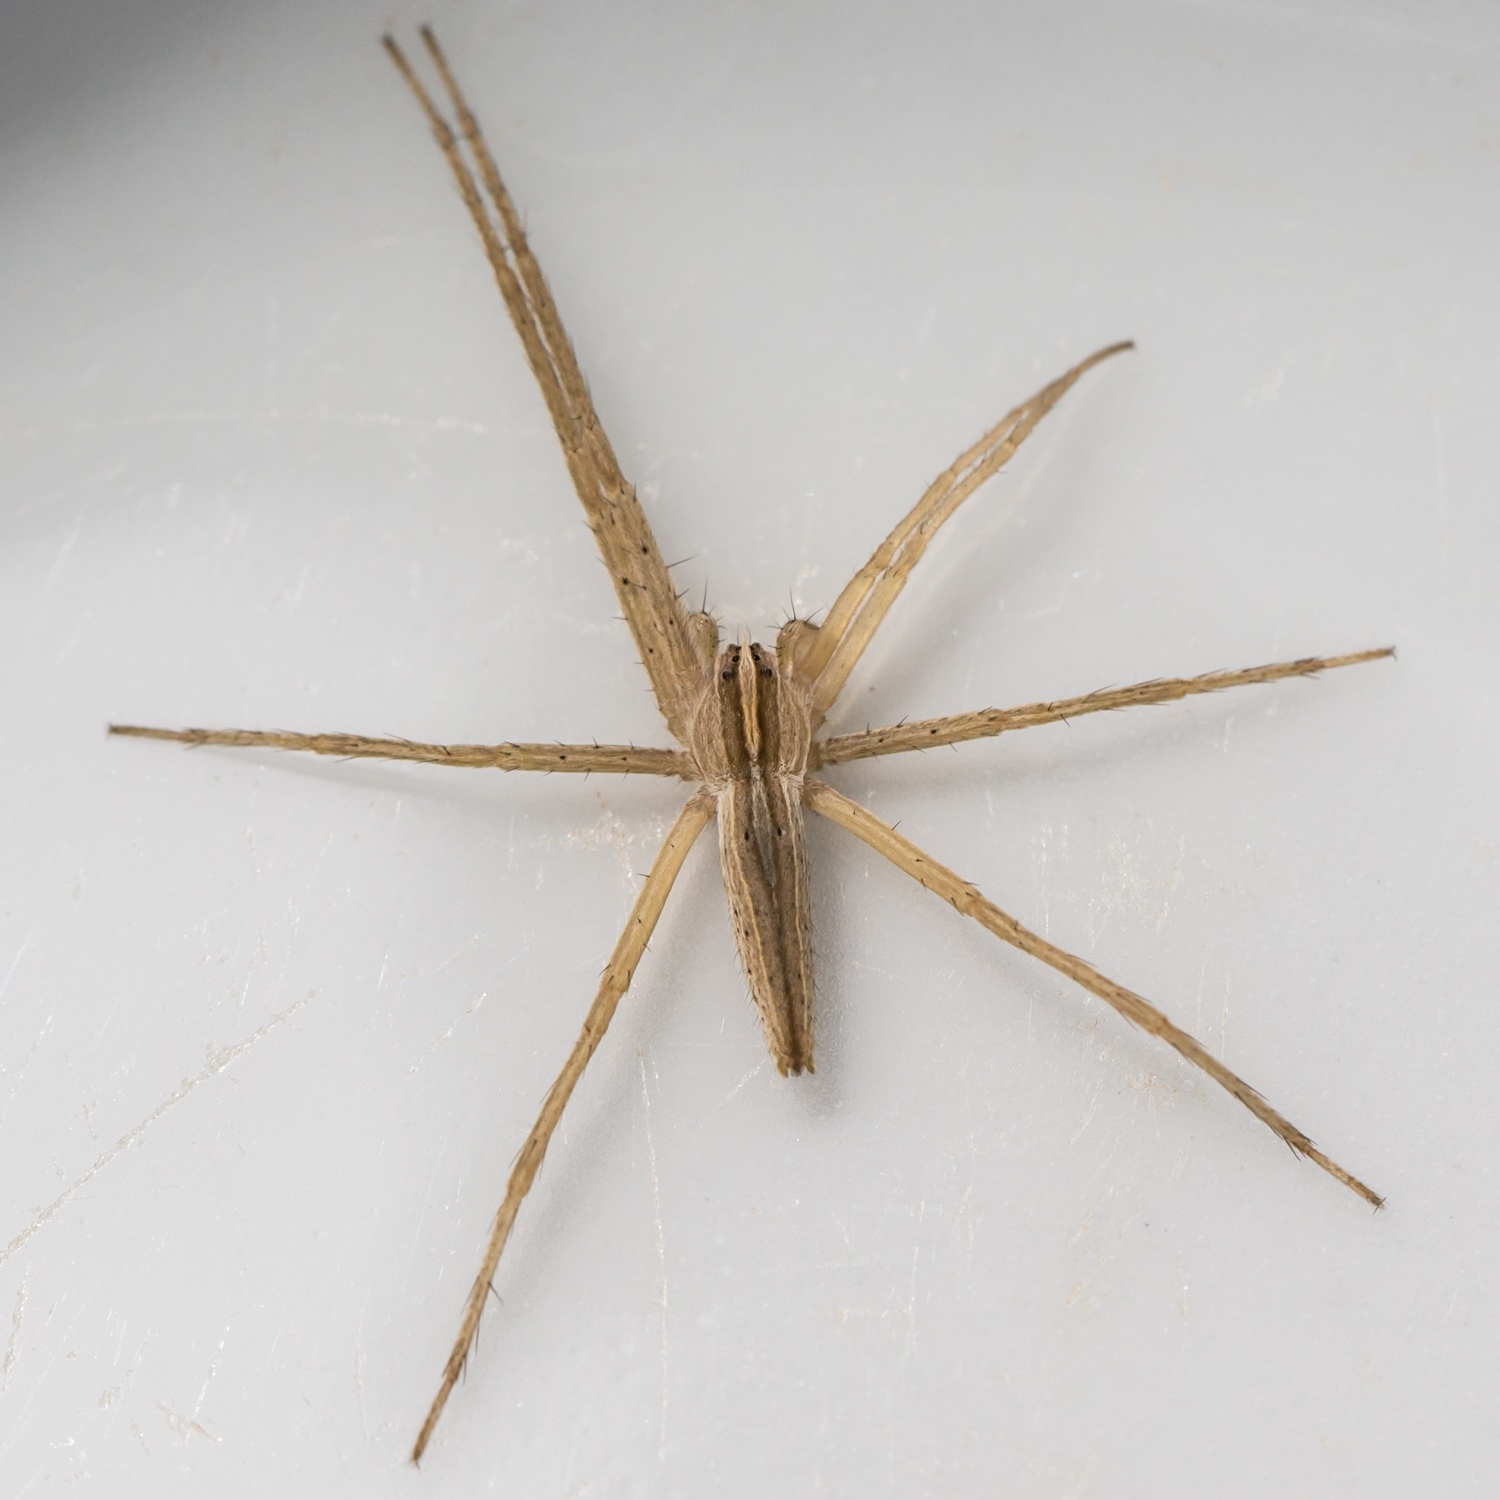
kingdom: Animalia
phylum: Arthropoda
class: Arachnida
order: Araneae
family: Pisauridae
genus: Pisaurina
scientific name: Pisaurina dubia
